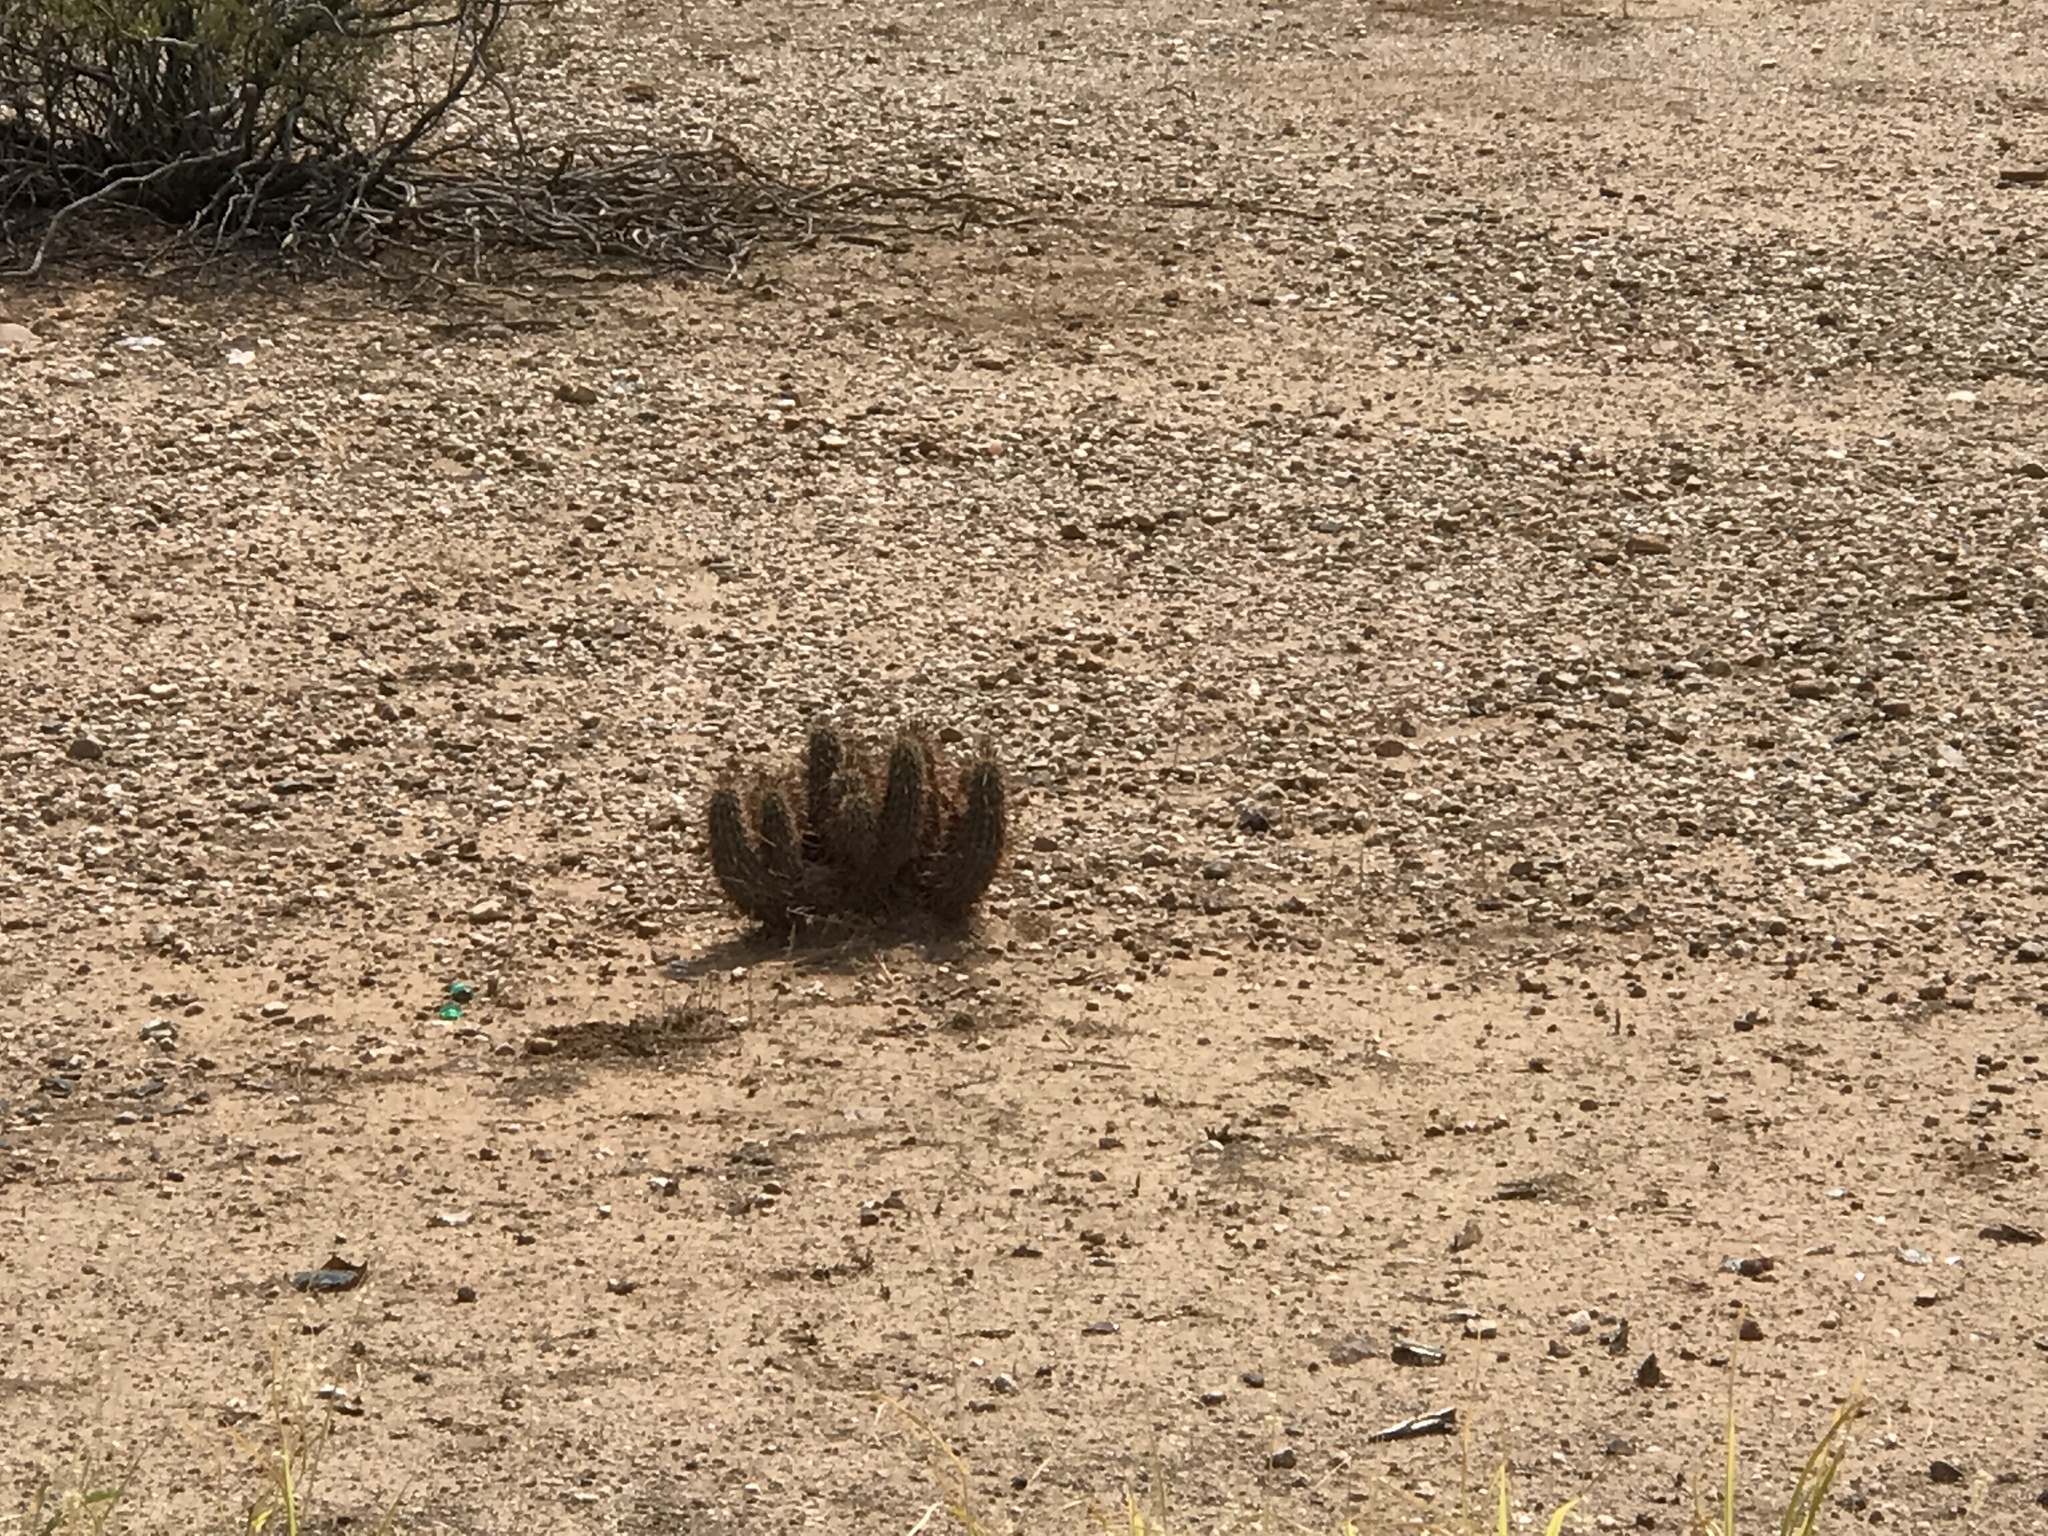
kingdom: Plantae
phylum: Tracheophyta
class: Magnoliopsida
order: Caryophyllales
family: Cactaceae
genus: Echinocereus
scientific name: Echinocereus engelmannii
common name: Engelmann's hedgehog cactus
